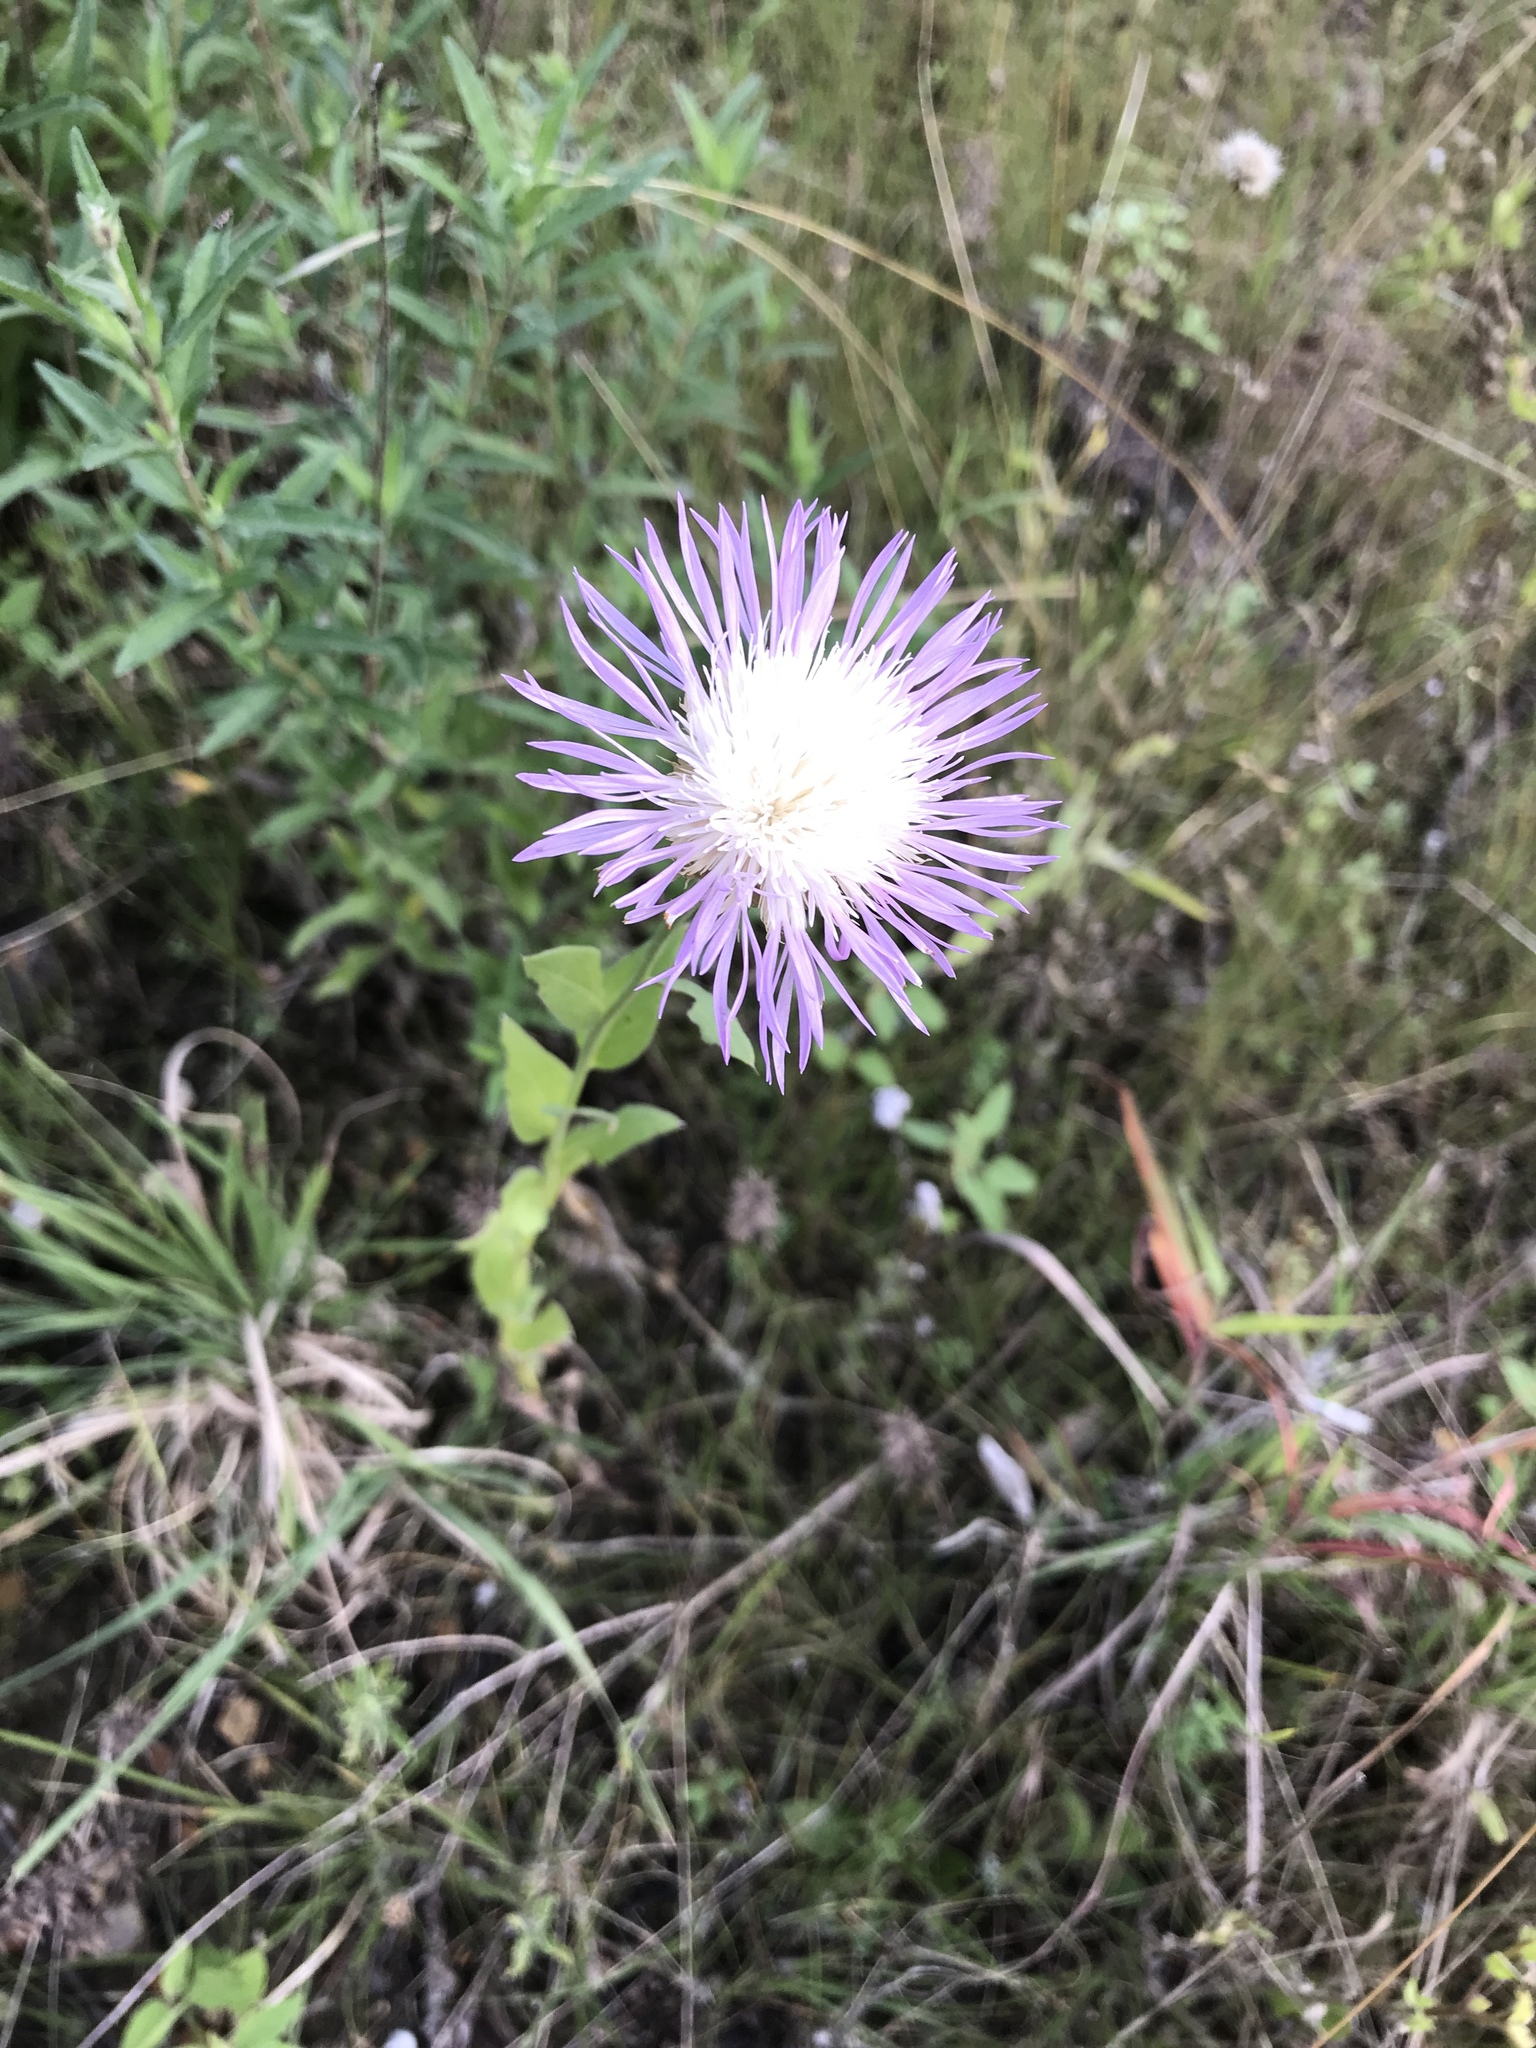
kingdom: Plantae
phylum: Tracheophyta
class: Magnoliopsida
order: Asterales
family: Asteraceae
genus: Plectocephalus
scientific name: Plectocephalus americanus
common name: American basket-flower
